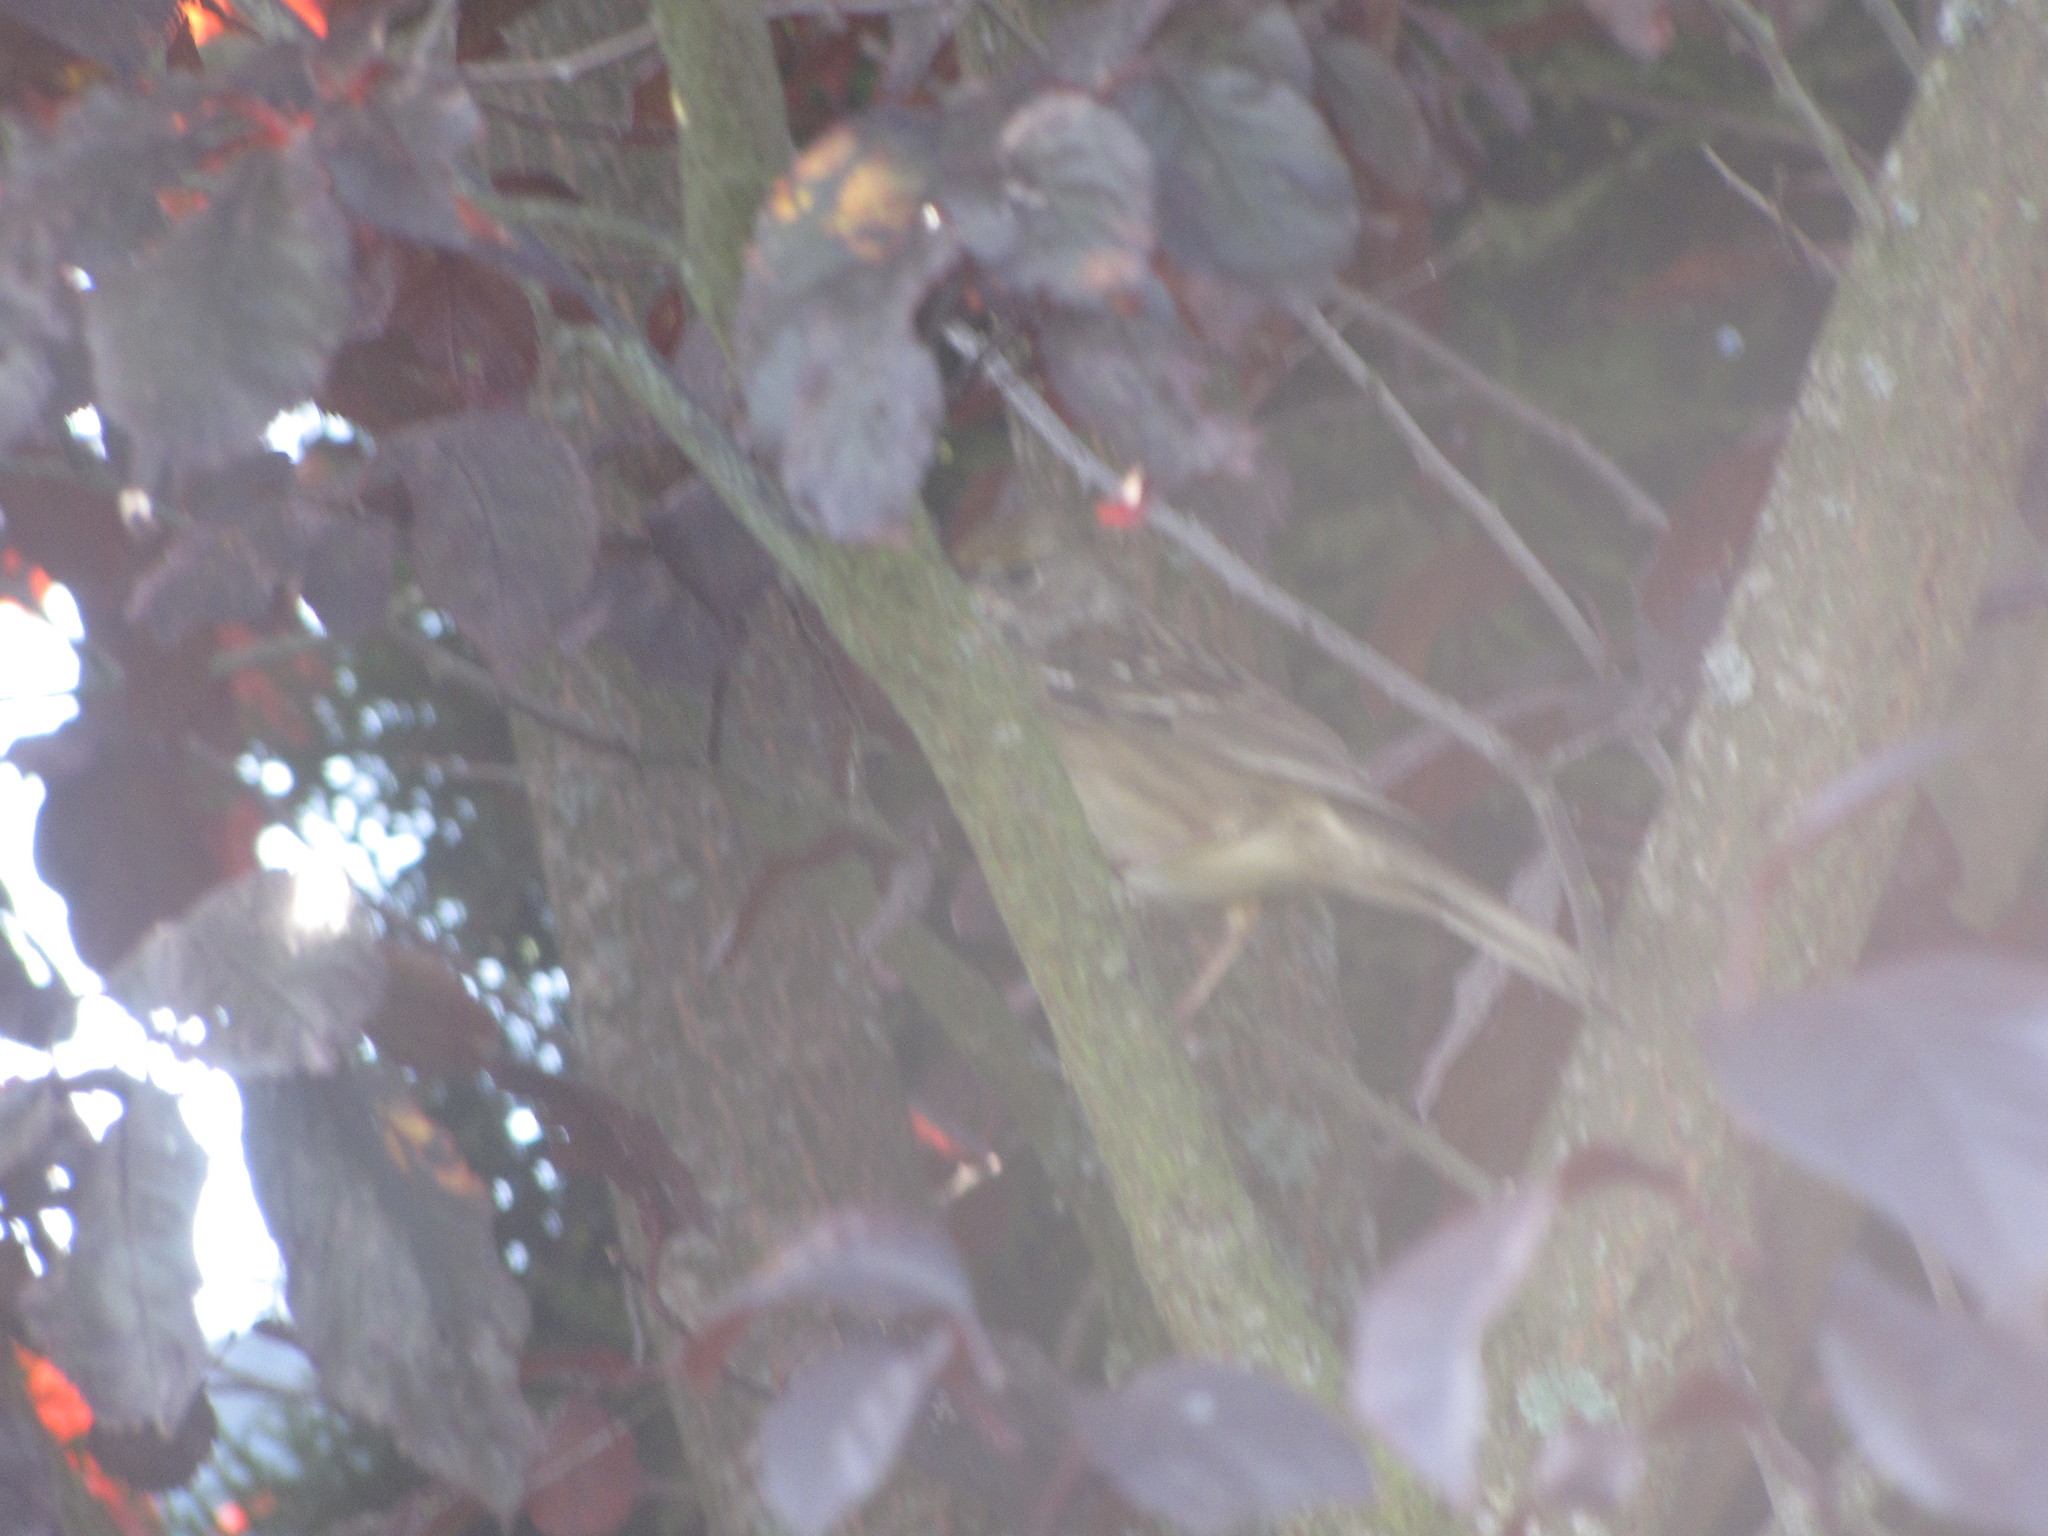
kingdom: Animalia
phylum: Chordata
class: Aves
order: Passeriformes
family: Passerellidae
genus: Zonotrichia
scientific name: Zonotrichia atricapilla
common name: Golden-crowned sparrow
